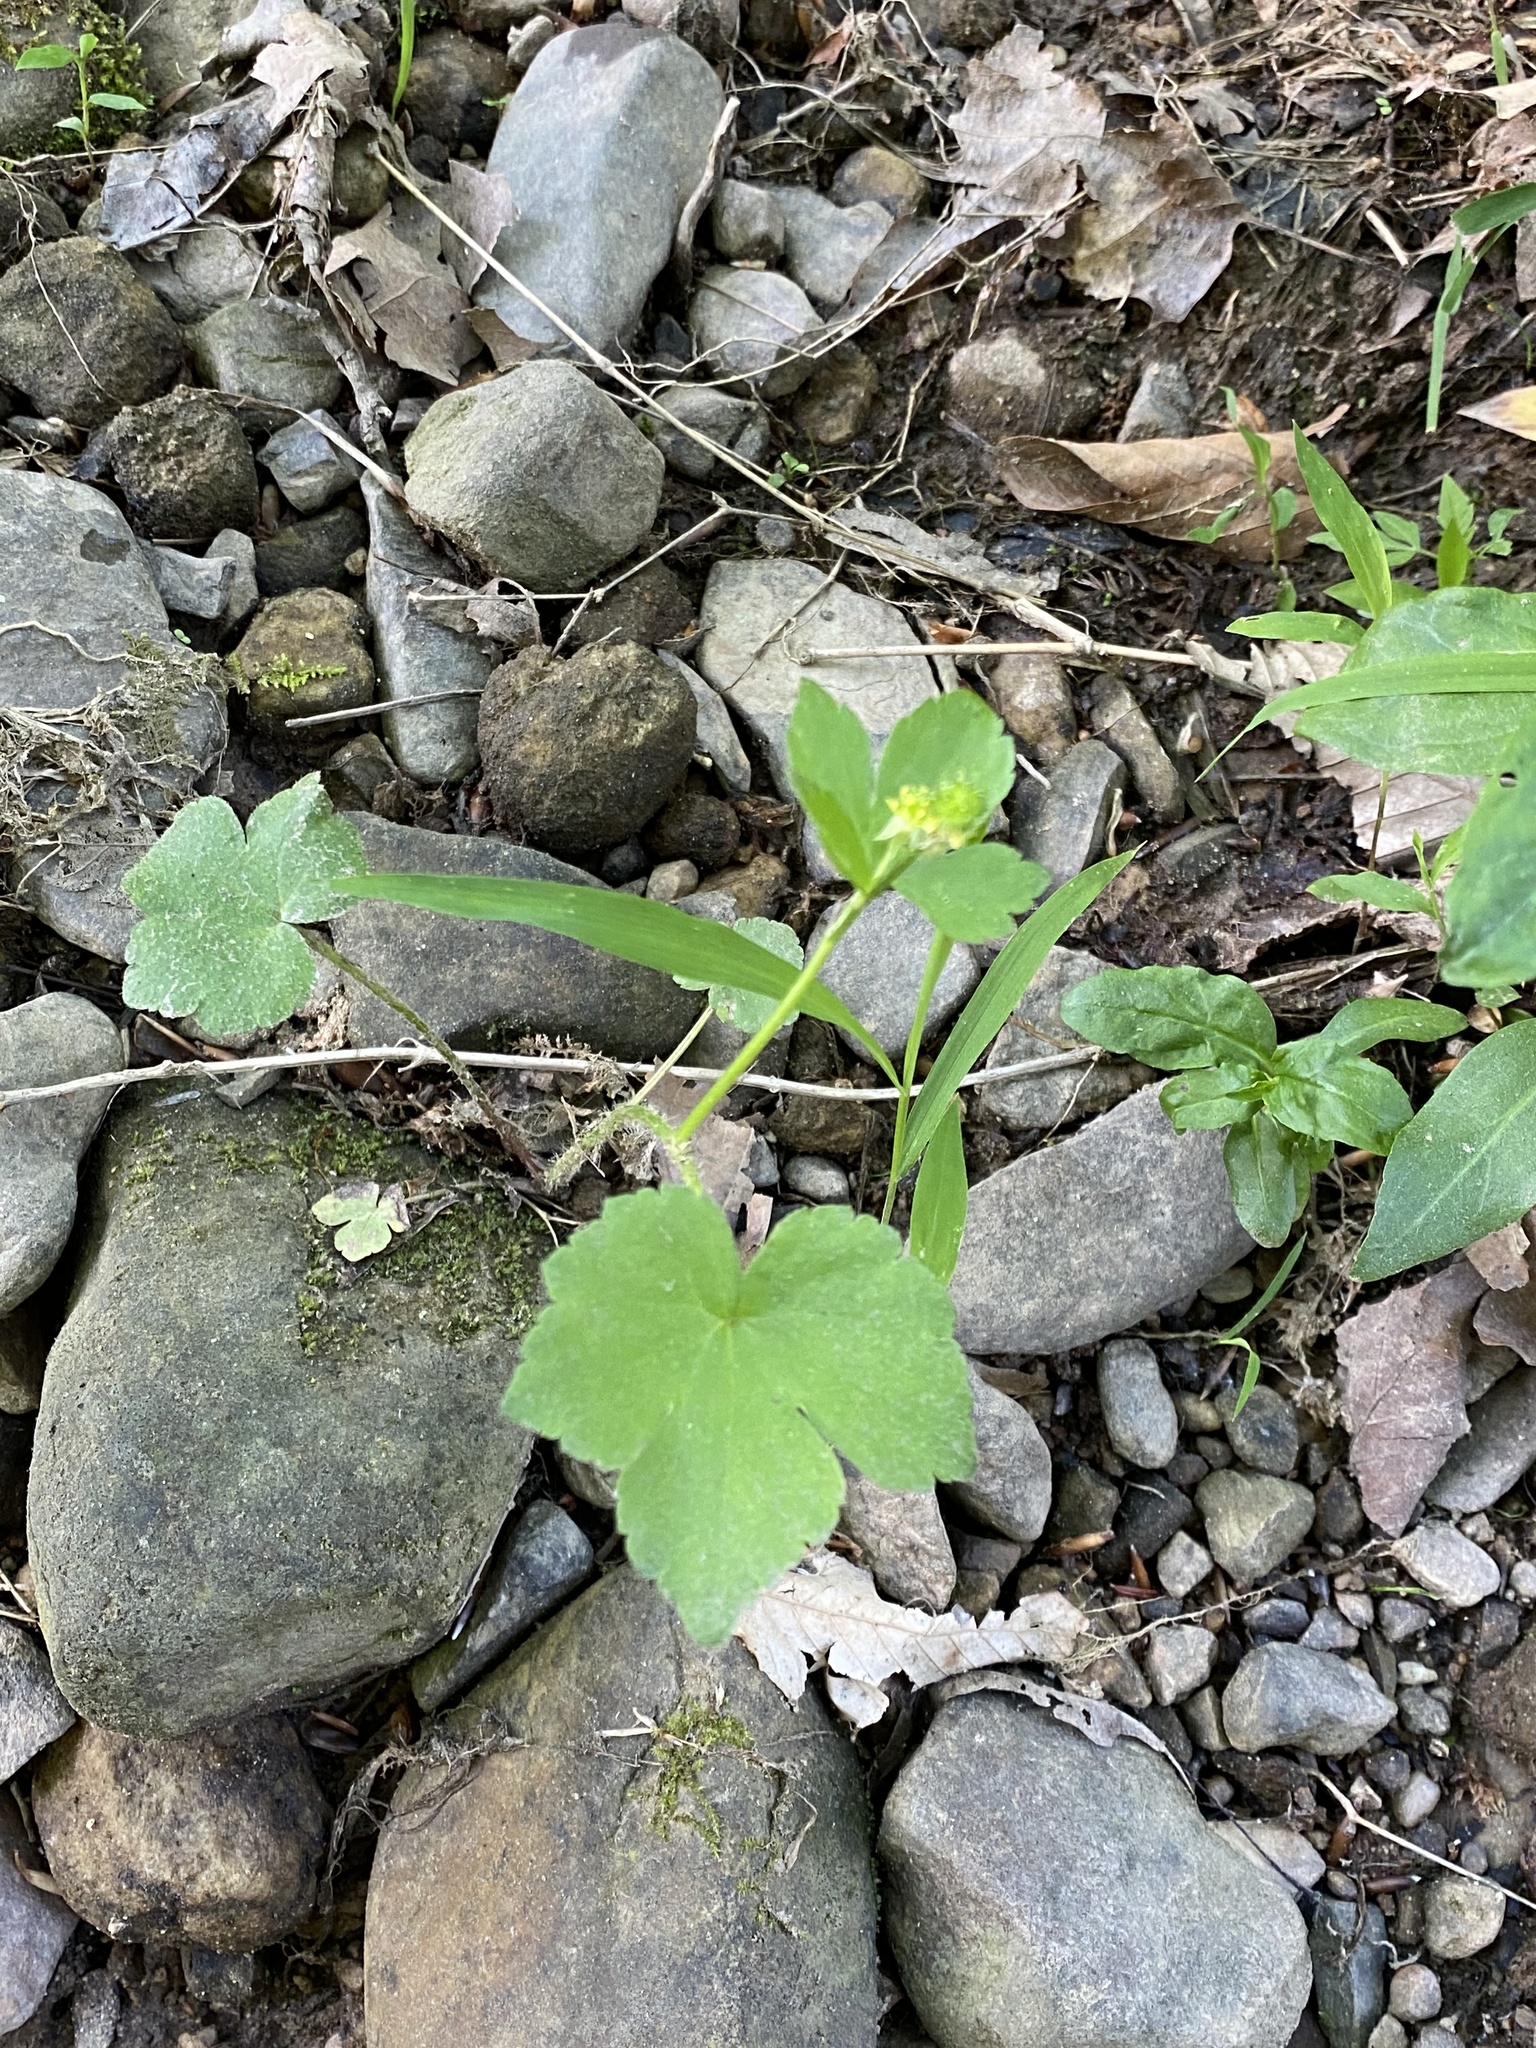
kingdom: Plantae
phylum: Tracheophyta
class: Magnoliopsida
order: Ranunculales
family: Ranunculaceae
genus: Ranunculus
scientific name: Ranunculus recurvatus
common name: Blisterwort
